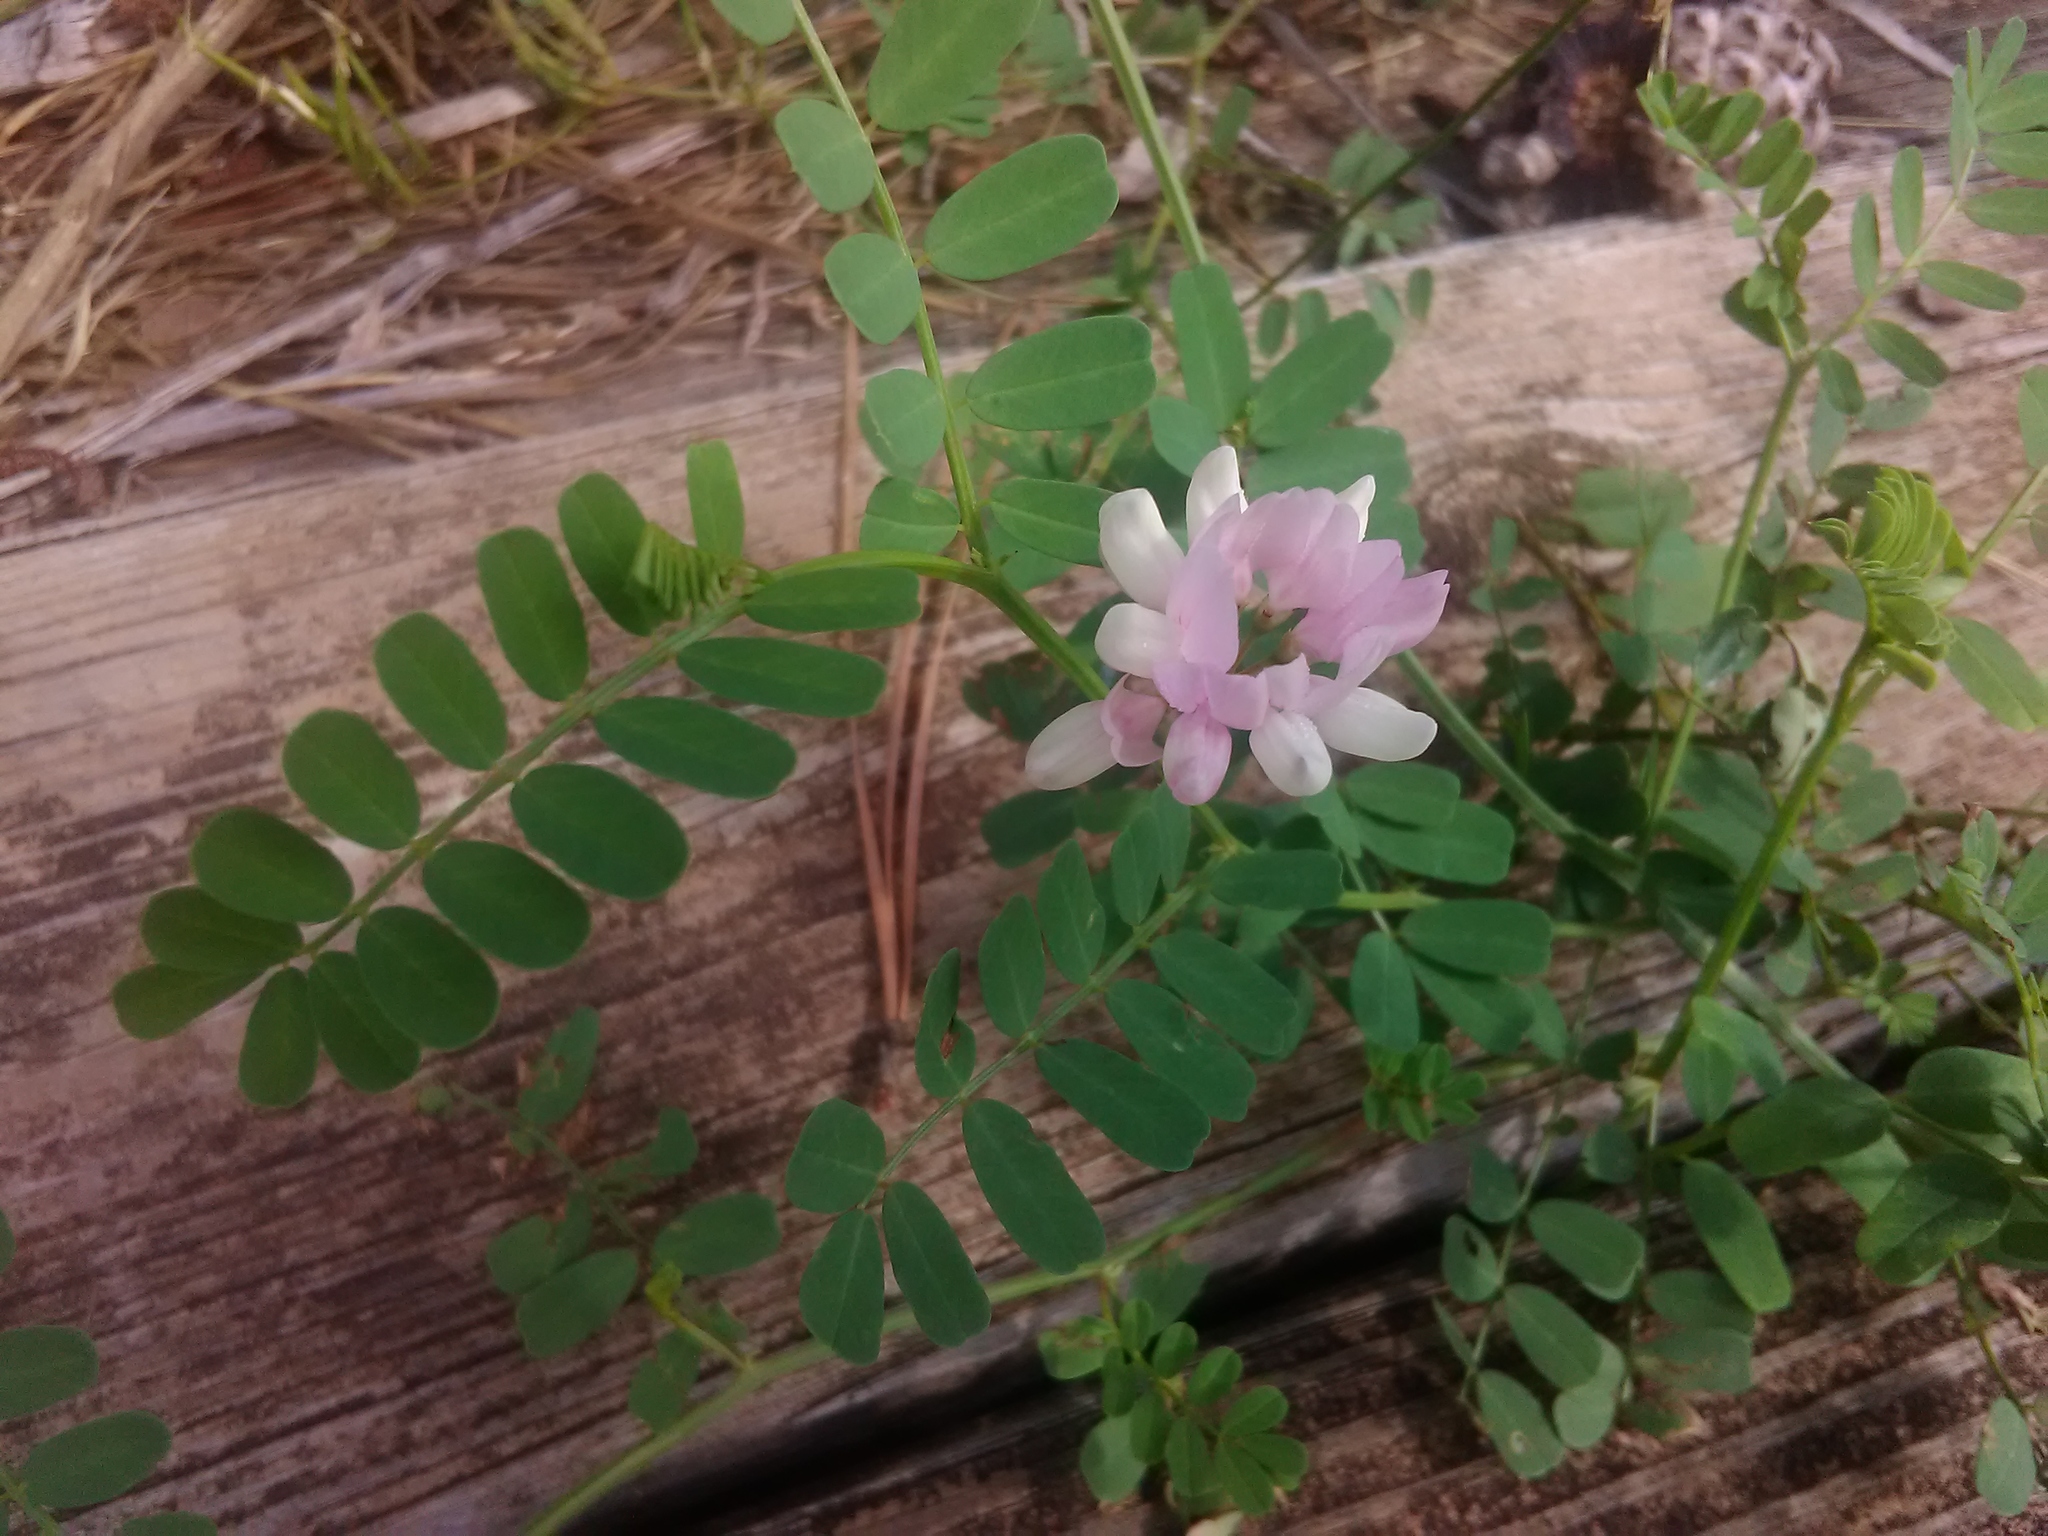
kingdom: Plantae
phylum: Tracheophyta
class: Magnoliopsida
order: Fabales
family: Fabaceae
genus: Coronilla
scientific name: Coronilla varia
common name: Crownvetch
